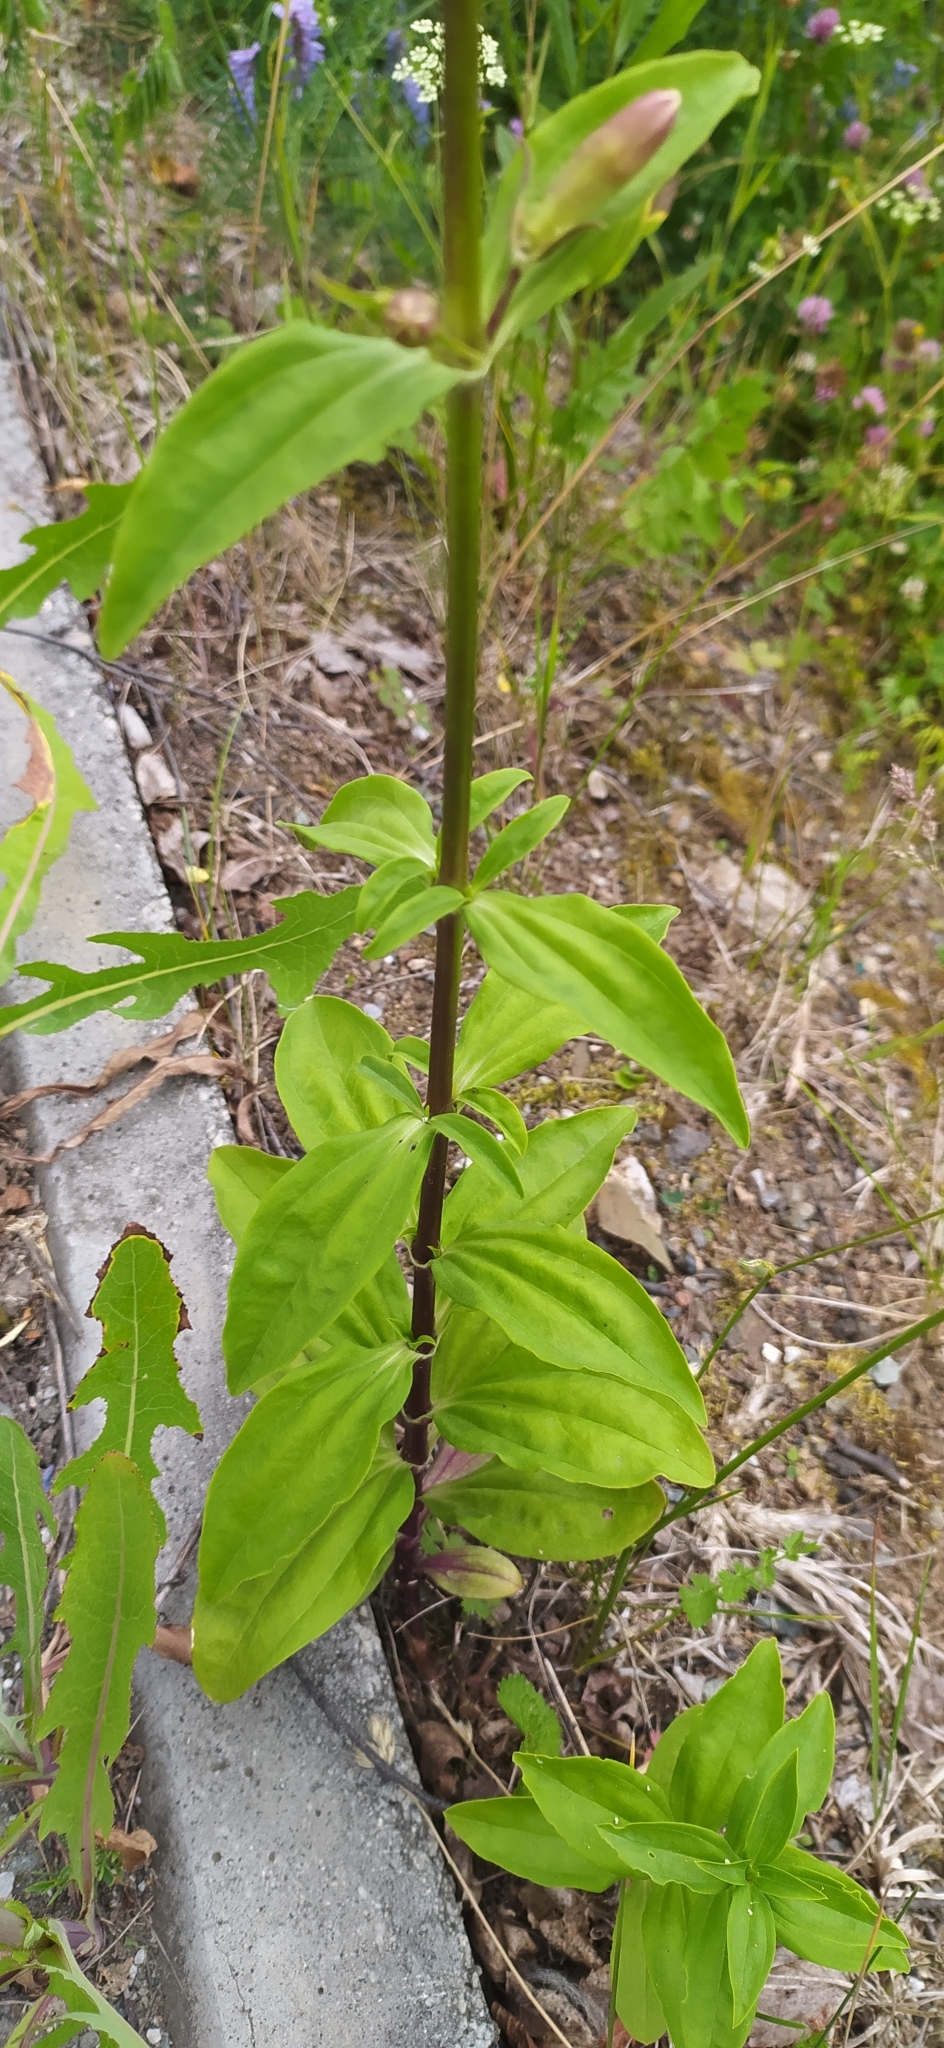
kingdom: Plantae
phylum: Tracheophyta
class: Magnoliopsida
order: Caryophyllales
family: Caryophyllaceae
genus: Saponaria
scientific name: Saponaria officinalis
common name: Soapwort
